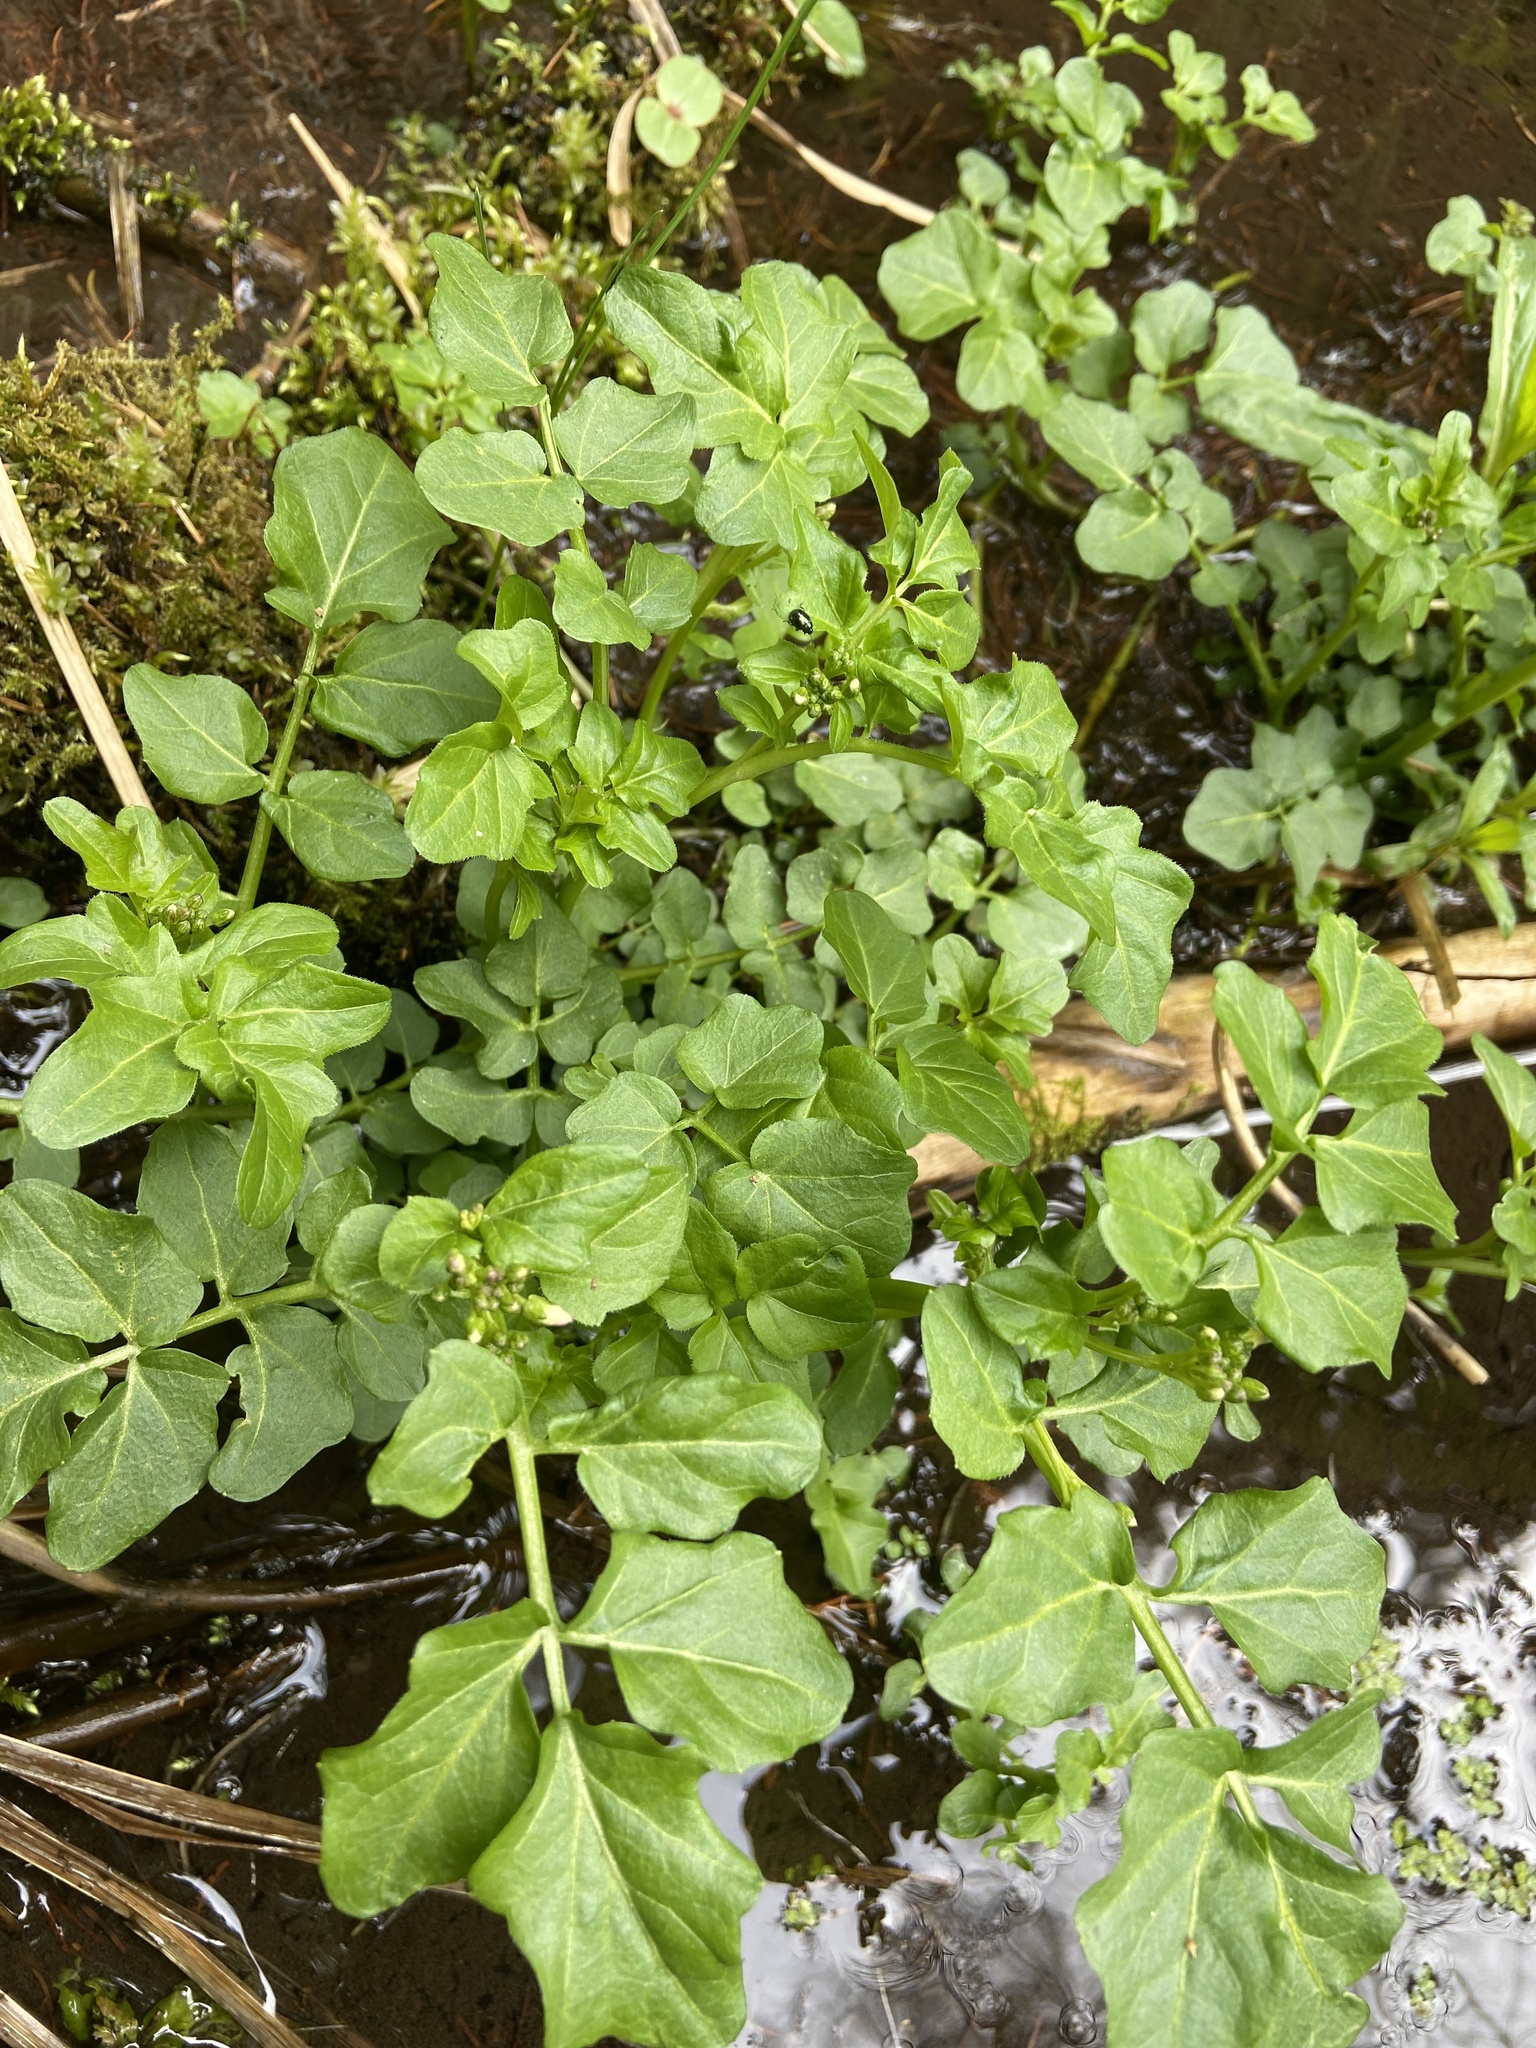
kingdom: Plantae
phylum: Tracheophyta
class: Magnoliopsida
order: Brassicales
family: Brassicaceae
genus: Cardamine
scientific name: Cardamine amara
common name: Large bitter-cress
